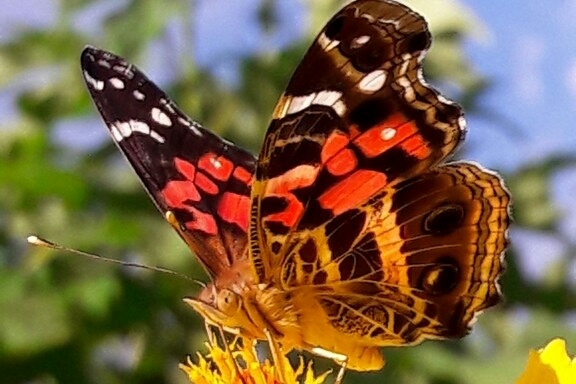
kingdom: Animalia
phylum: Arthropoda
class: Insecta
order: Lepidoptera
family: Nymphalidae
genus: Vanessa
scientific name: Vanessa myrinna
